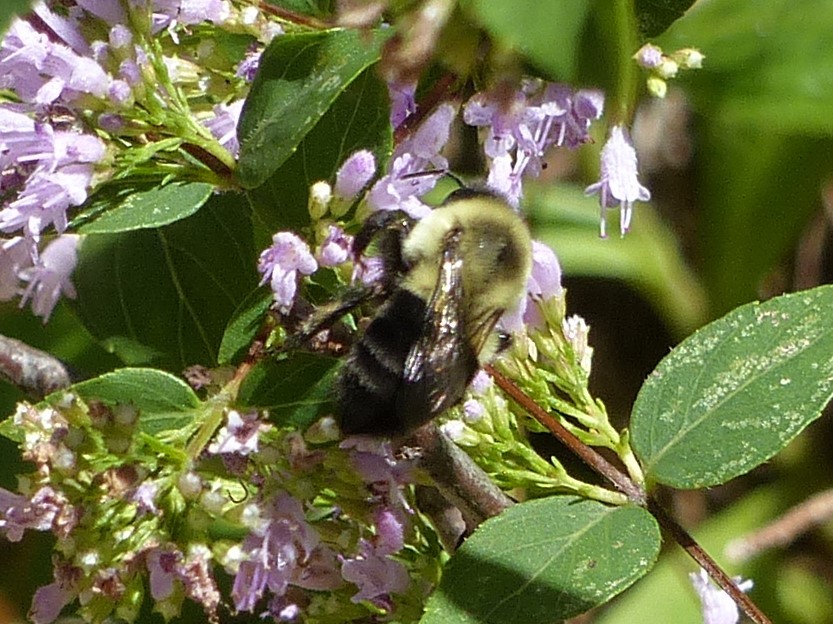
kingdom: Animalia
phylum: Arthropoda
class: Insecta
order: Hymenoptera
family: Apidae
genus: Bombus
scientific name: Bombus impatiens
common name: Common eastern bumble bee
